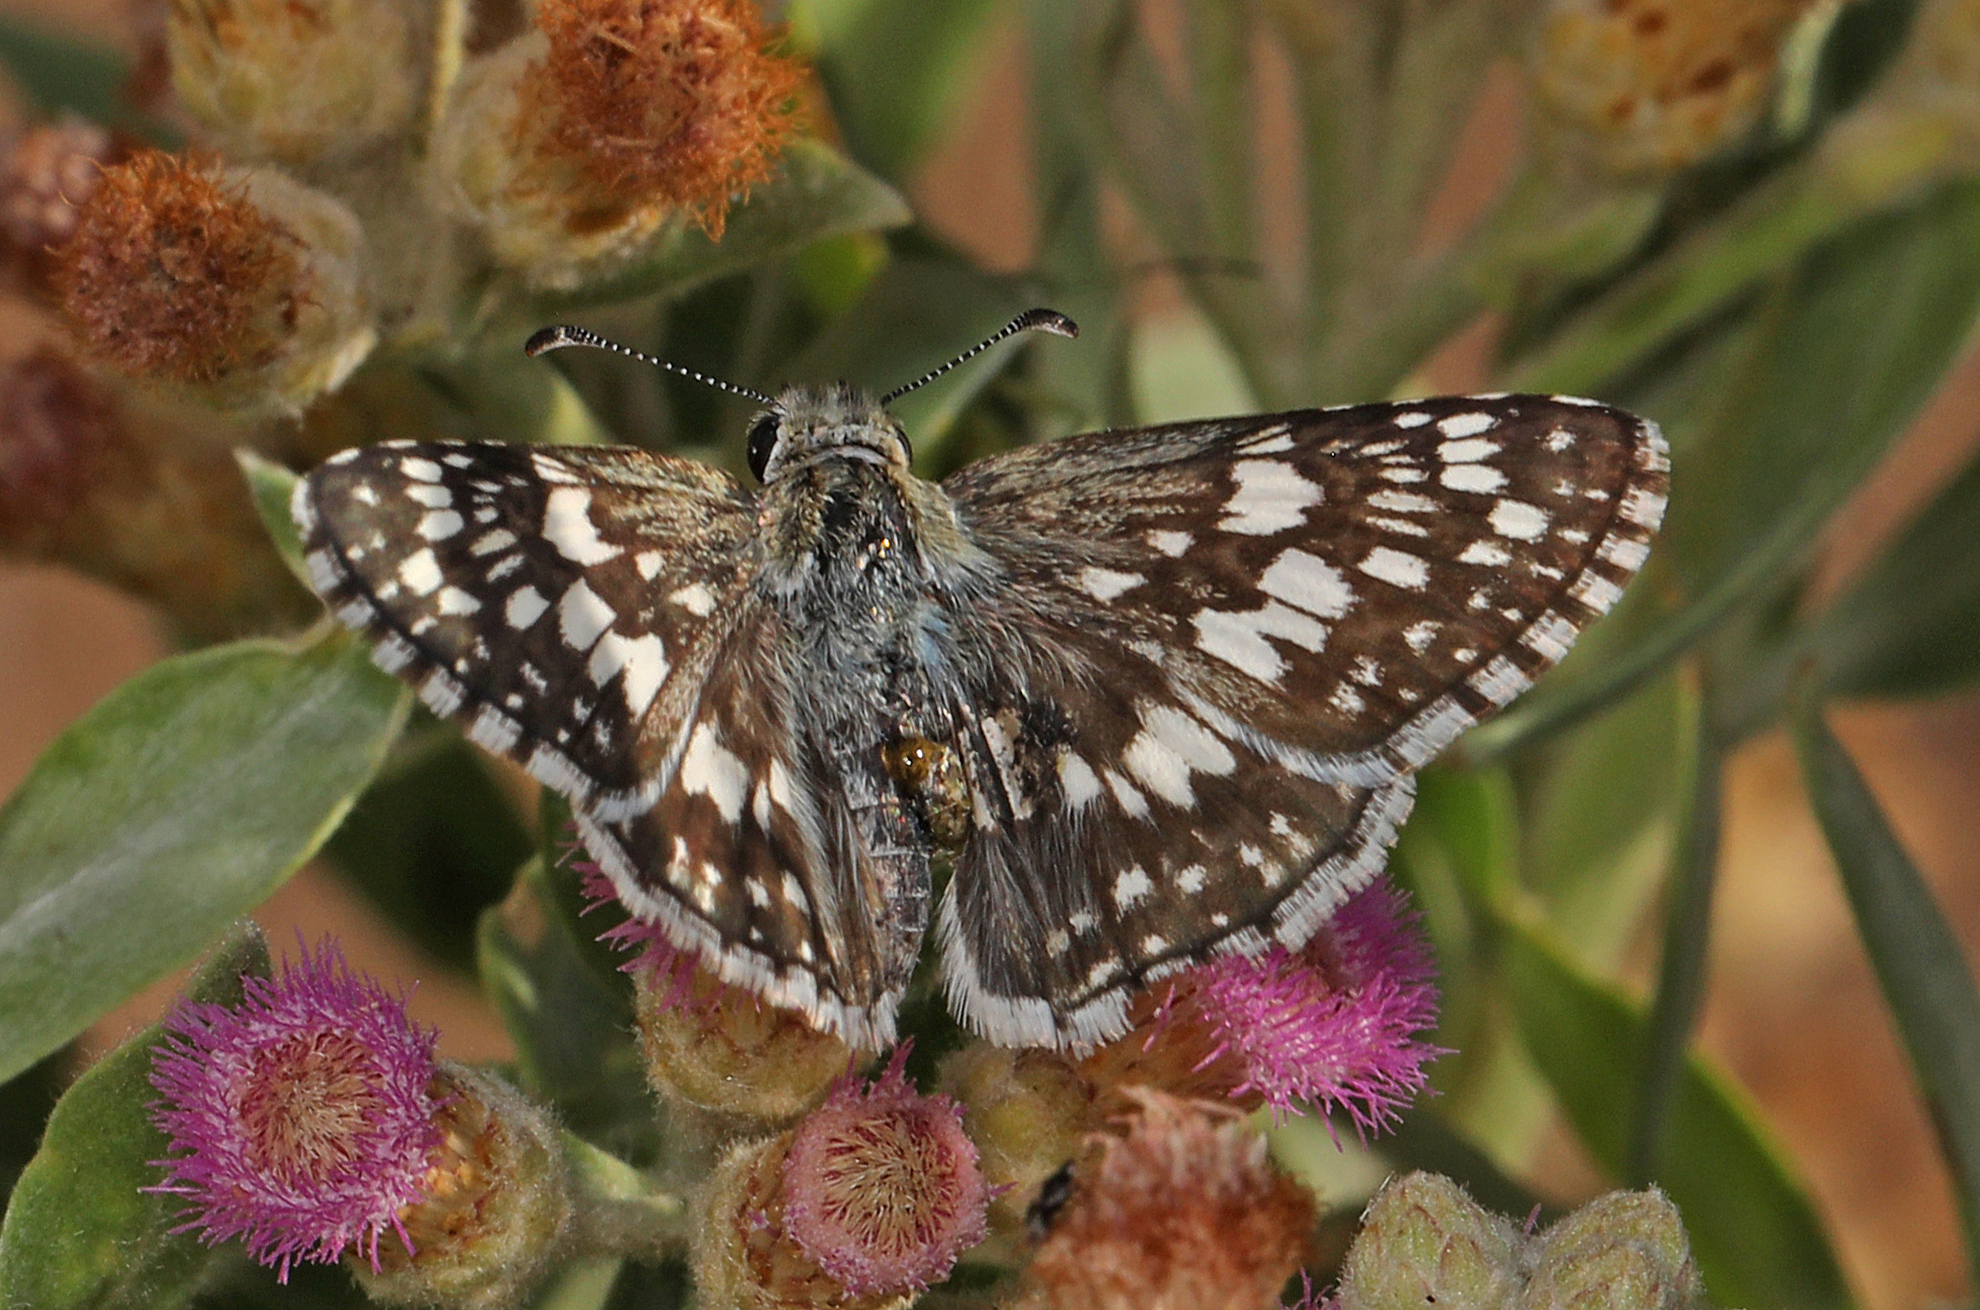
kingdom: Animalia
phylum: Arthropoda
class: Insecta
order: Lepidoptera
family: Hesperiidae
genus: Burnsius
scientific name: Burnsius albezens
